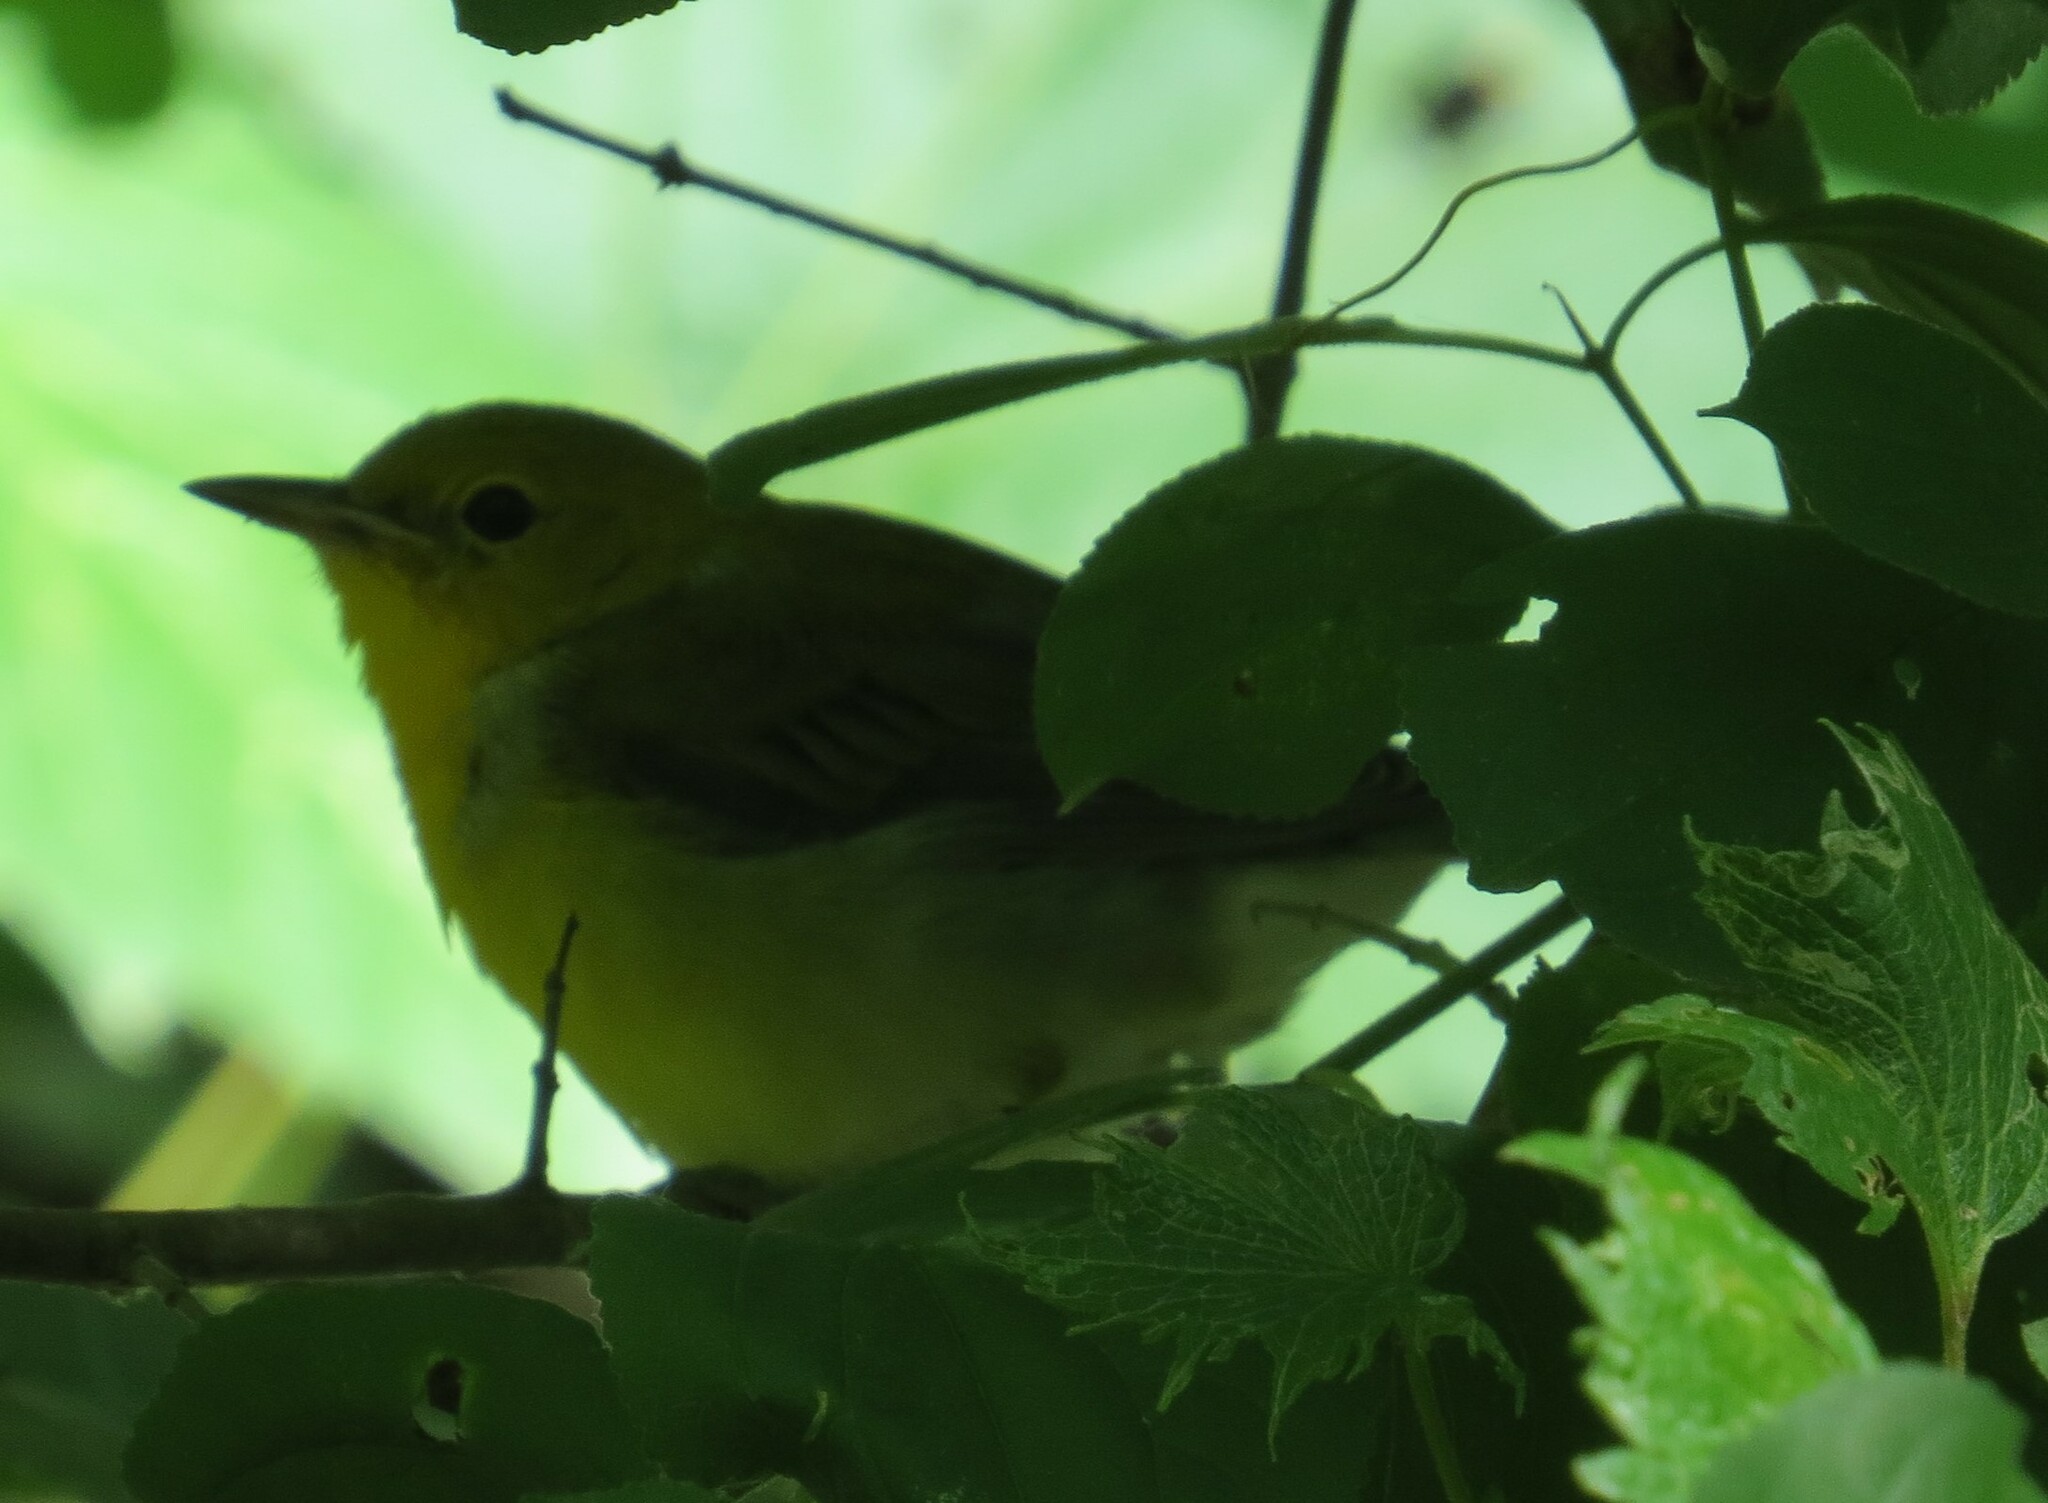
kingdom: Animalia
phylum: Chordata
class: Aves
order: Passeriformes
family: Parulidae
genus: Protonotaria
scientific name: Protonotaria citrea
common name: Prothonotary warbler
